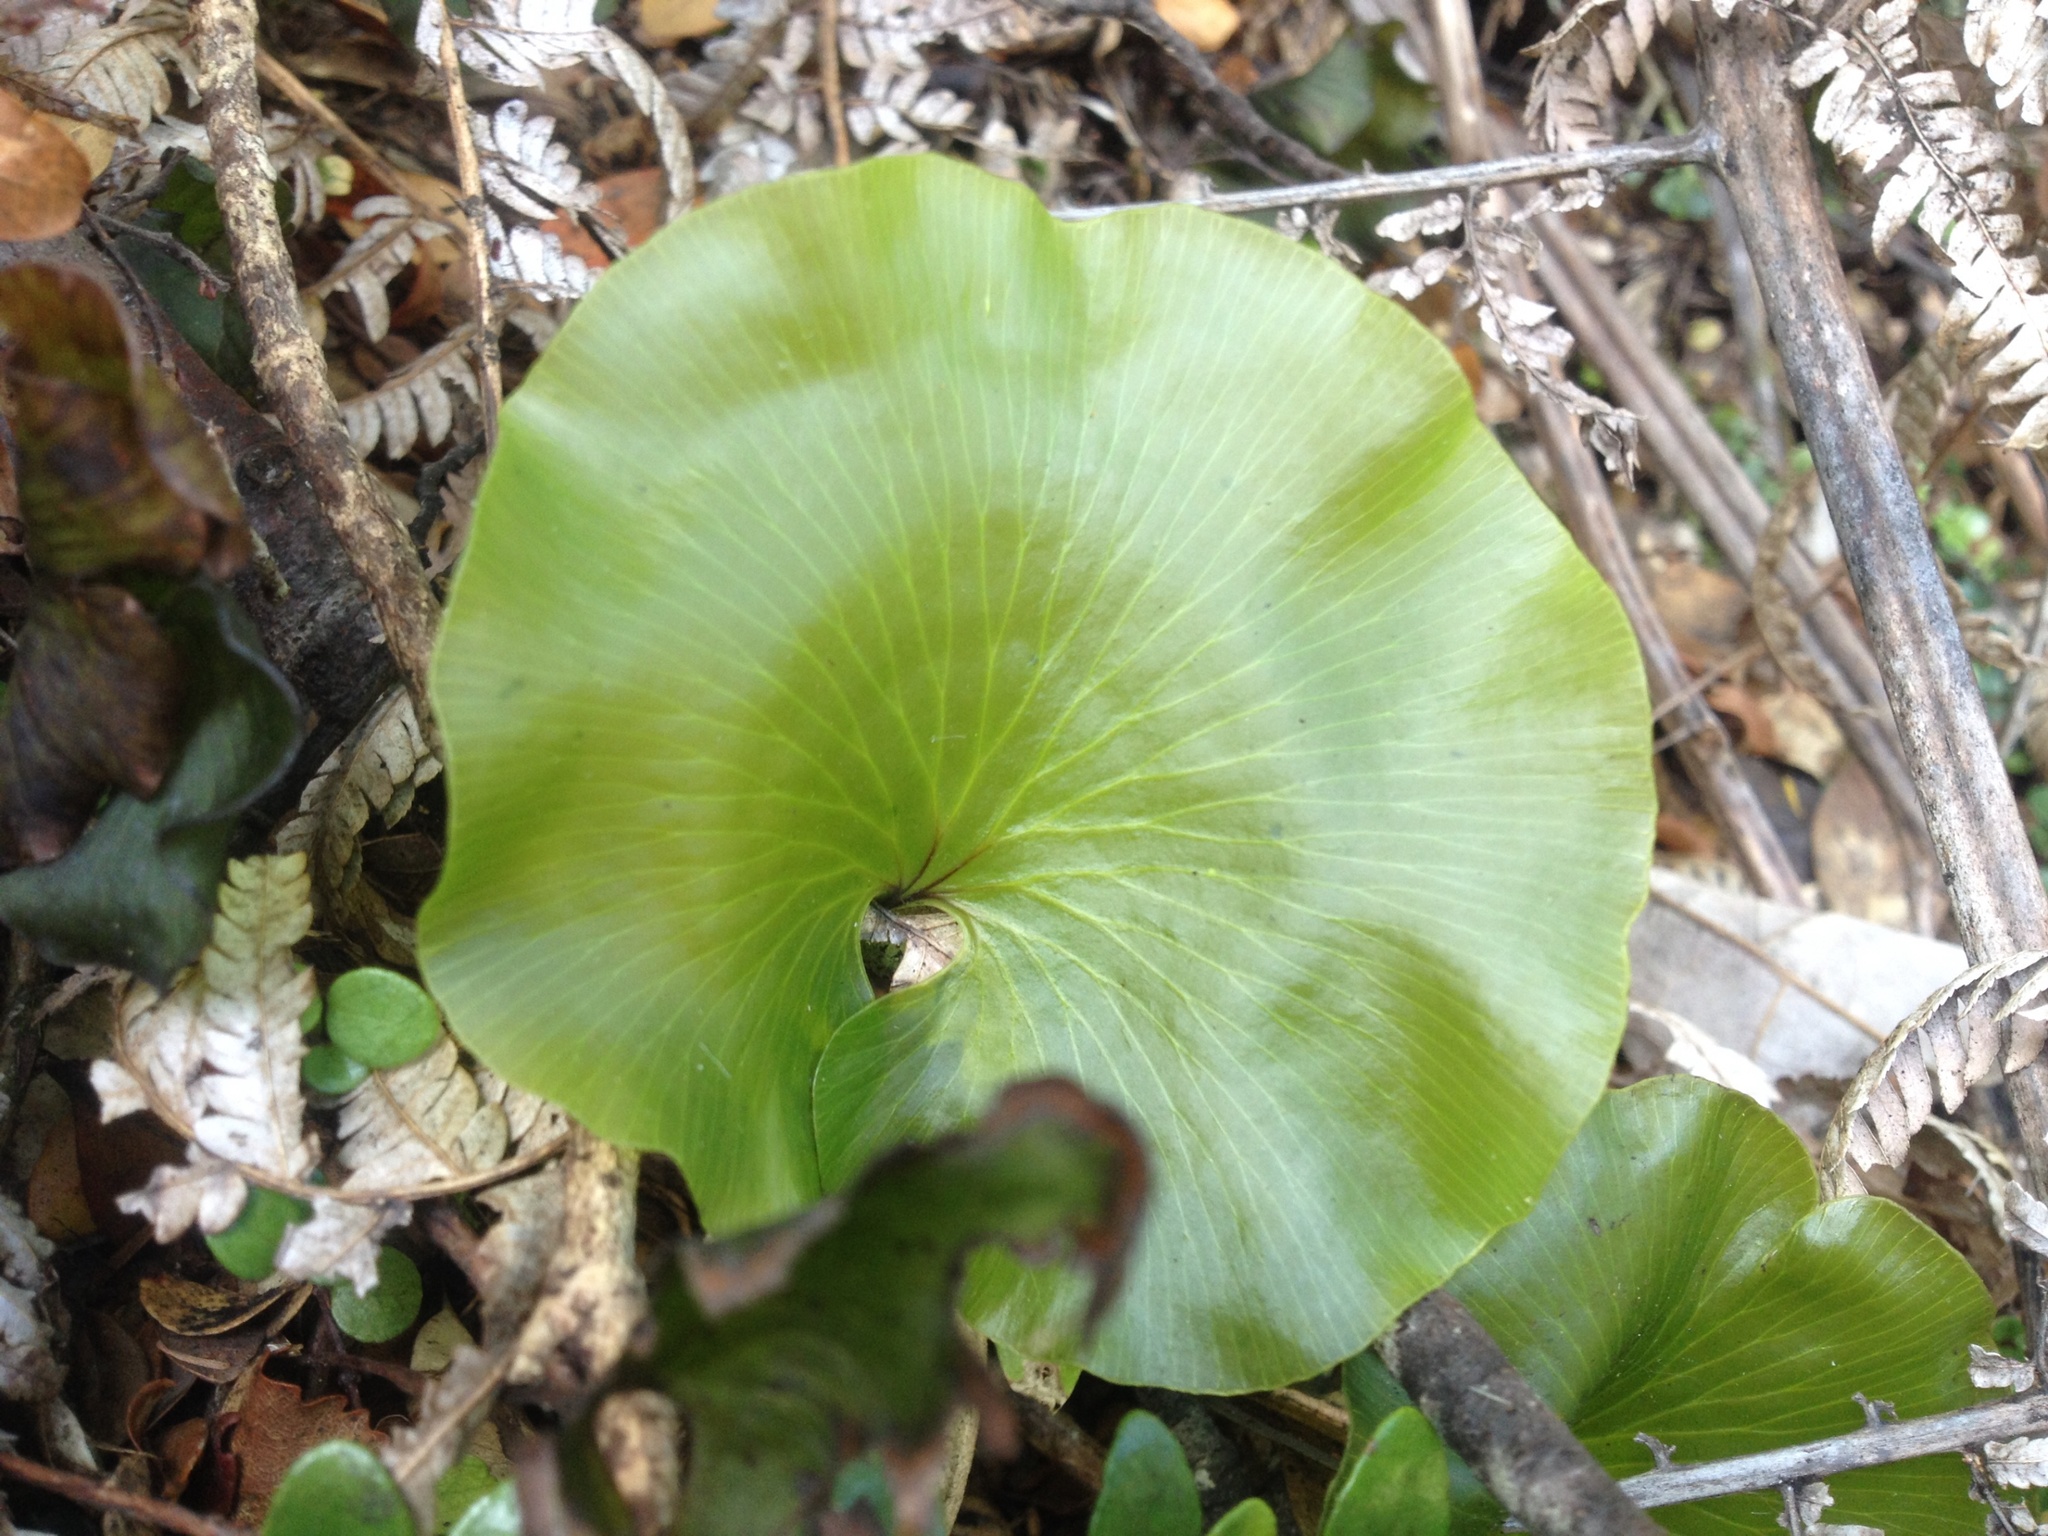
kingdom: Plantae
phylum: Tracheophyta
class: Polypodiopsida
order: Hymenophyllales
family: Hymenophyllaceae
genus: Hymenophyllum
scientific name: Hymenophyllum nephrophyllum
